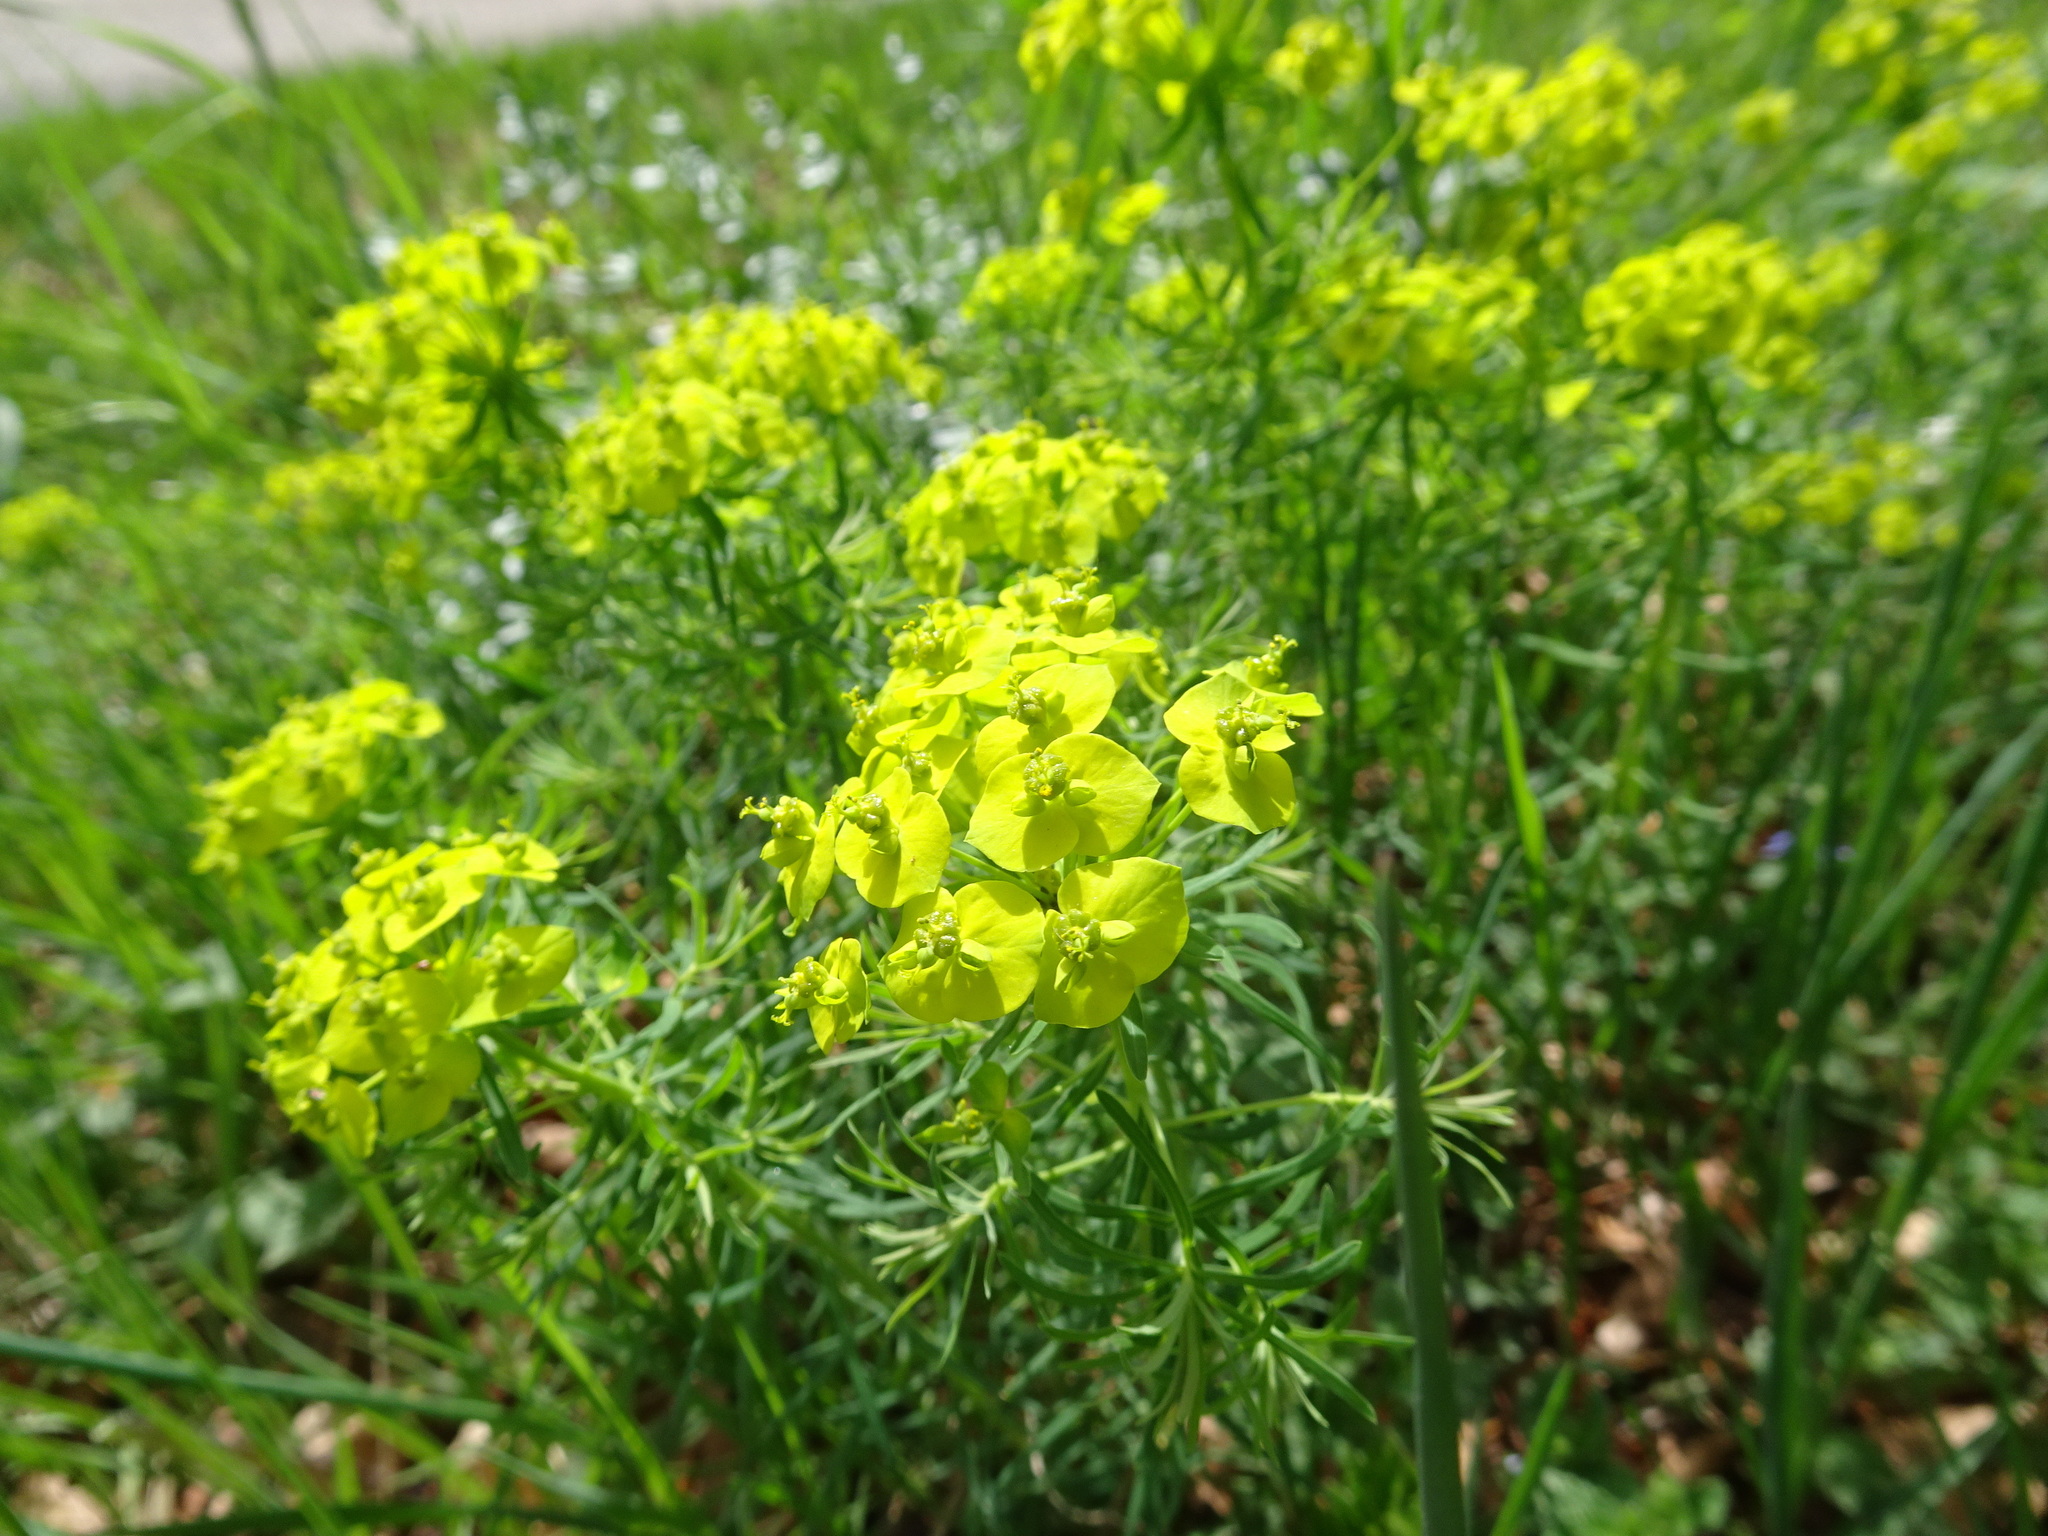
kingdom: Plantae
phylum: Tracheophyta
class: Magnoliopsida
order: Malpighiales
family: Euphorbiaceae
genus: Euphorbia
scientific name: Euphorbia cyparissias
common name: Cypress spurge
